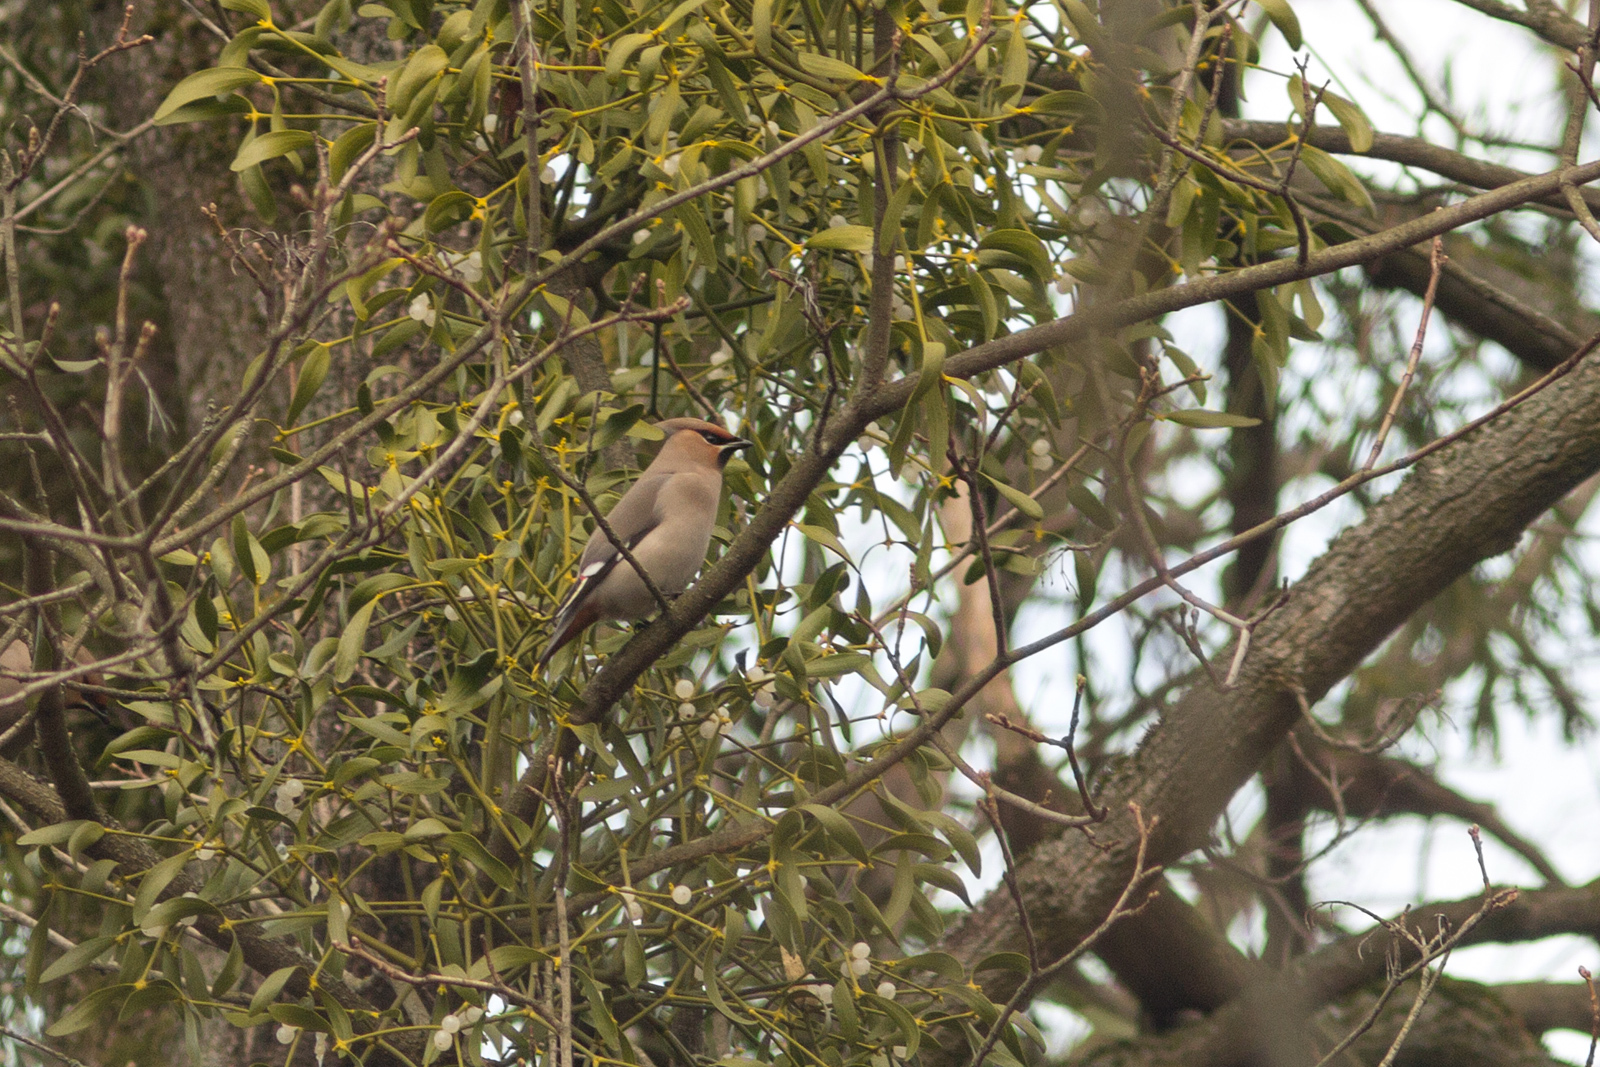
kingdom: Animalia
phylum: Chordata
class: Aves
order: Passeriformes
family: Bombycillidae
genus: Bombycilla
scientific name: Bombycilla garrulus
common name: Bohemian waxwing
